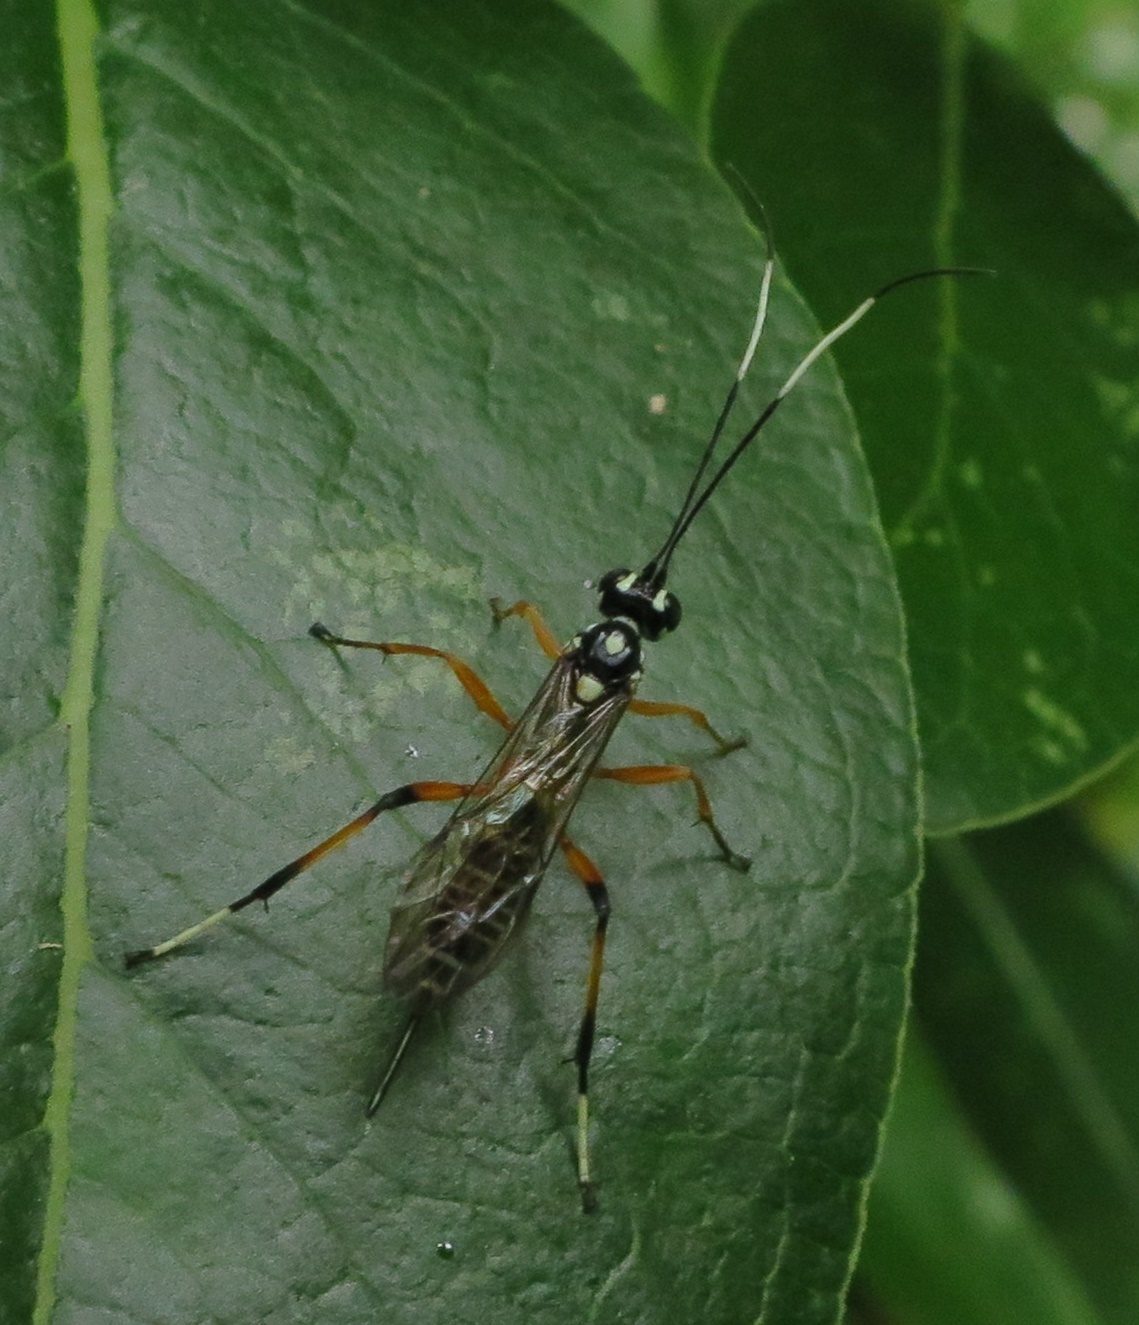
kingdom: Animalia
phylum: Arthropoda
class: Insecta
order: Hymenoptera
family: Ichneumonidae
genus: Xanthocryptus
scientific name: Xanthocryptus novozealandicus
